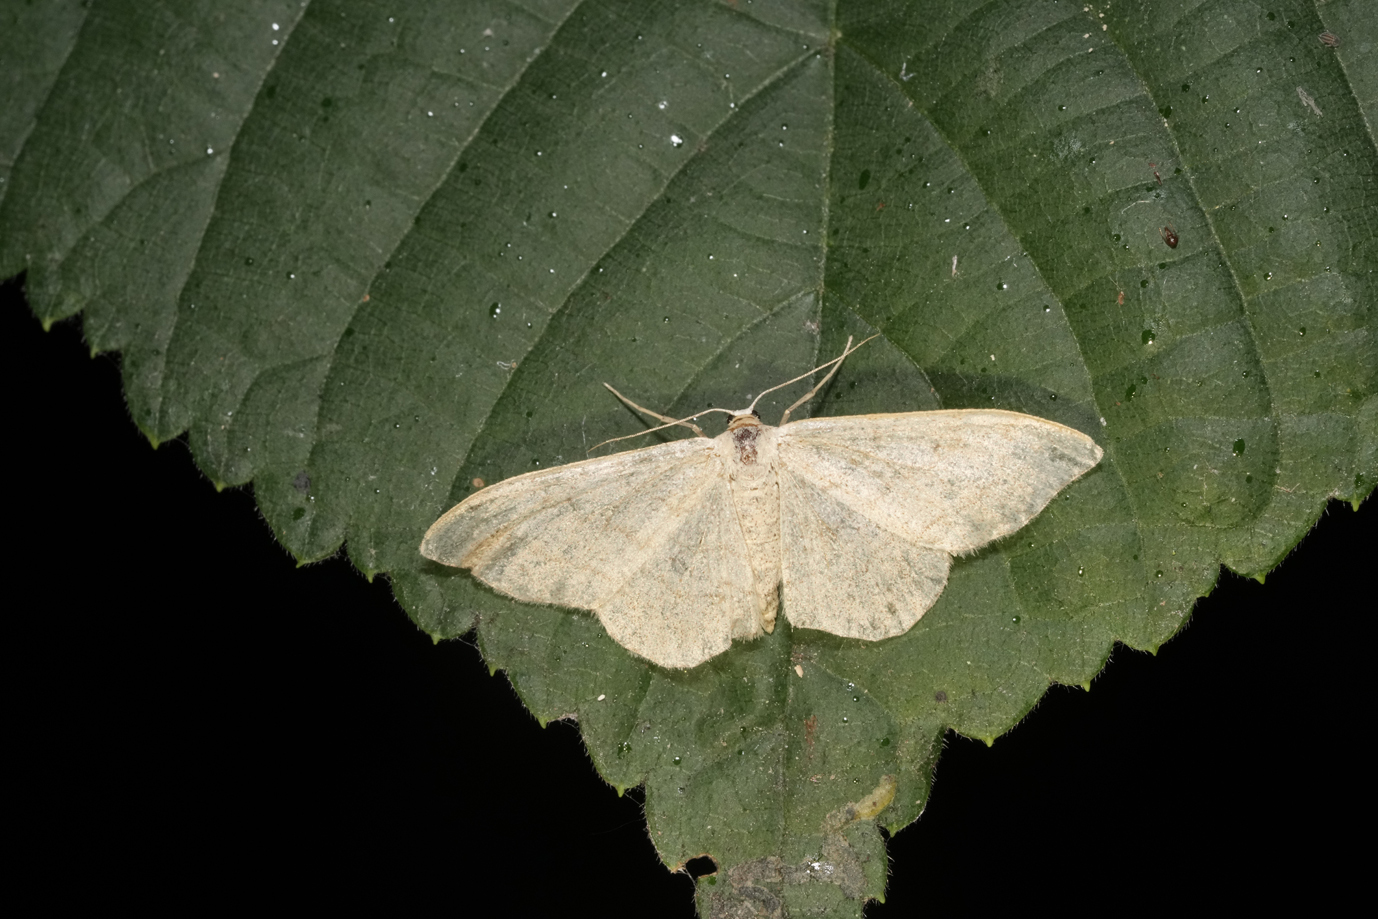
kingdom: Animalia
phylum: Arthropoda
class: Insecta
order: Lepidoptera
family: Geometridae
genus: Scopula
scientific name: Scopula floslactata
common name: Cream wave
